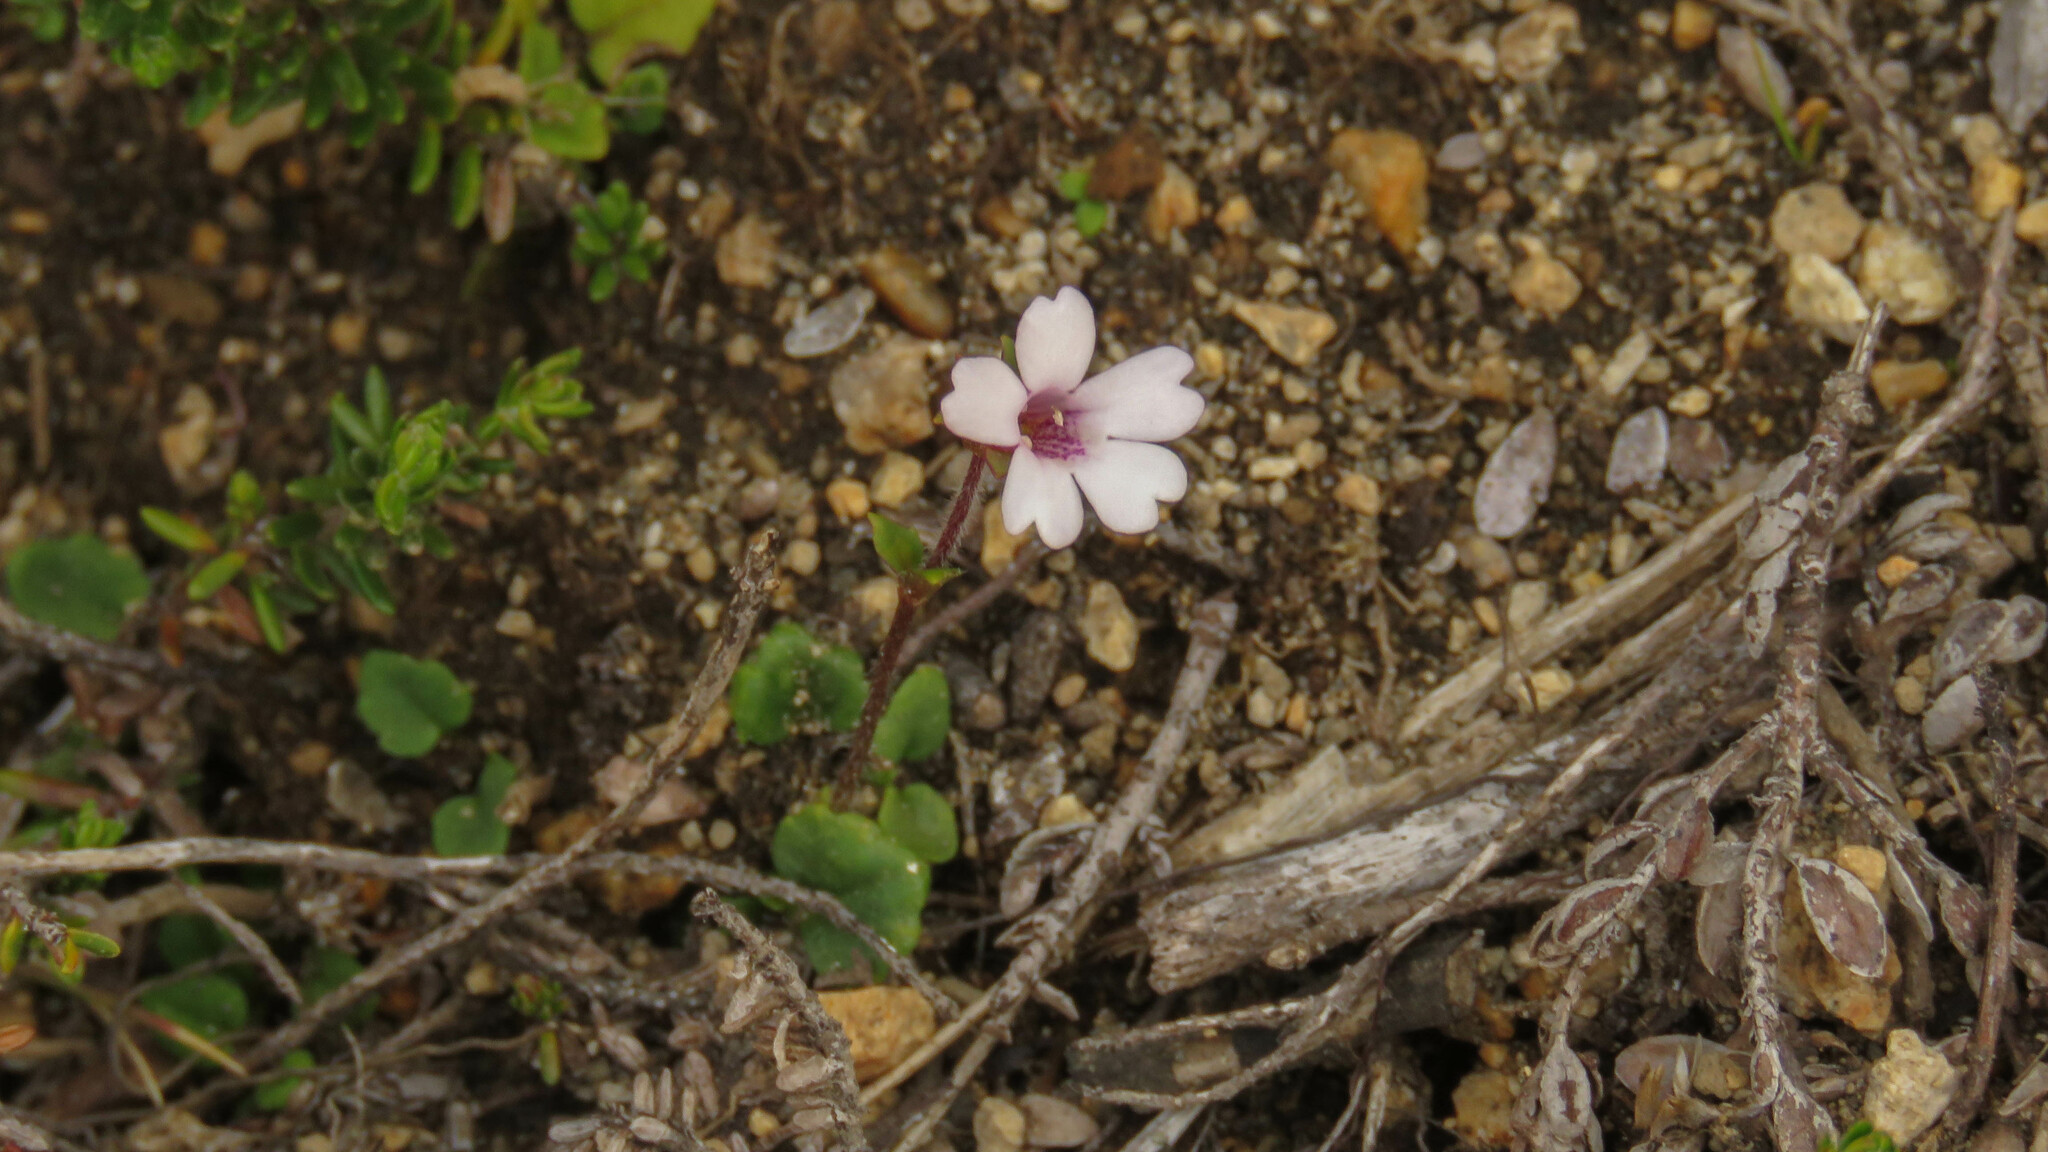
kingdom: Plantae
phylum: Tracheophyta
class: Magnoliopsida
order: Lamiales
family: Plantaginaceae
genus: Ourisia
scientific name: Ourisia breviflora
